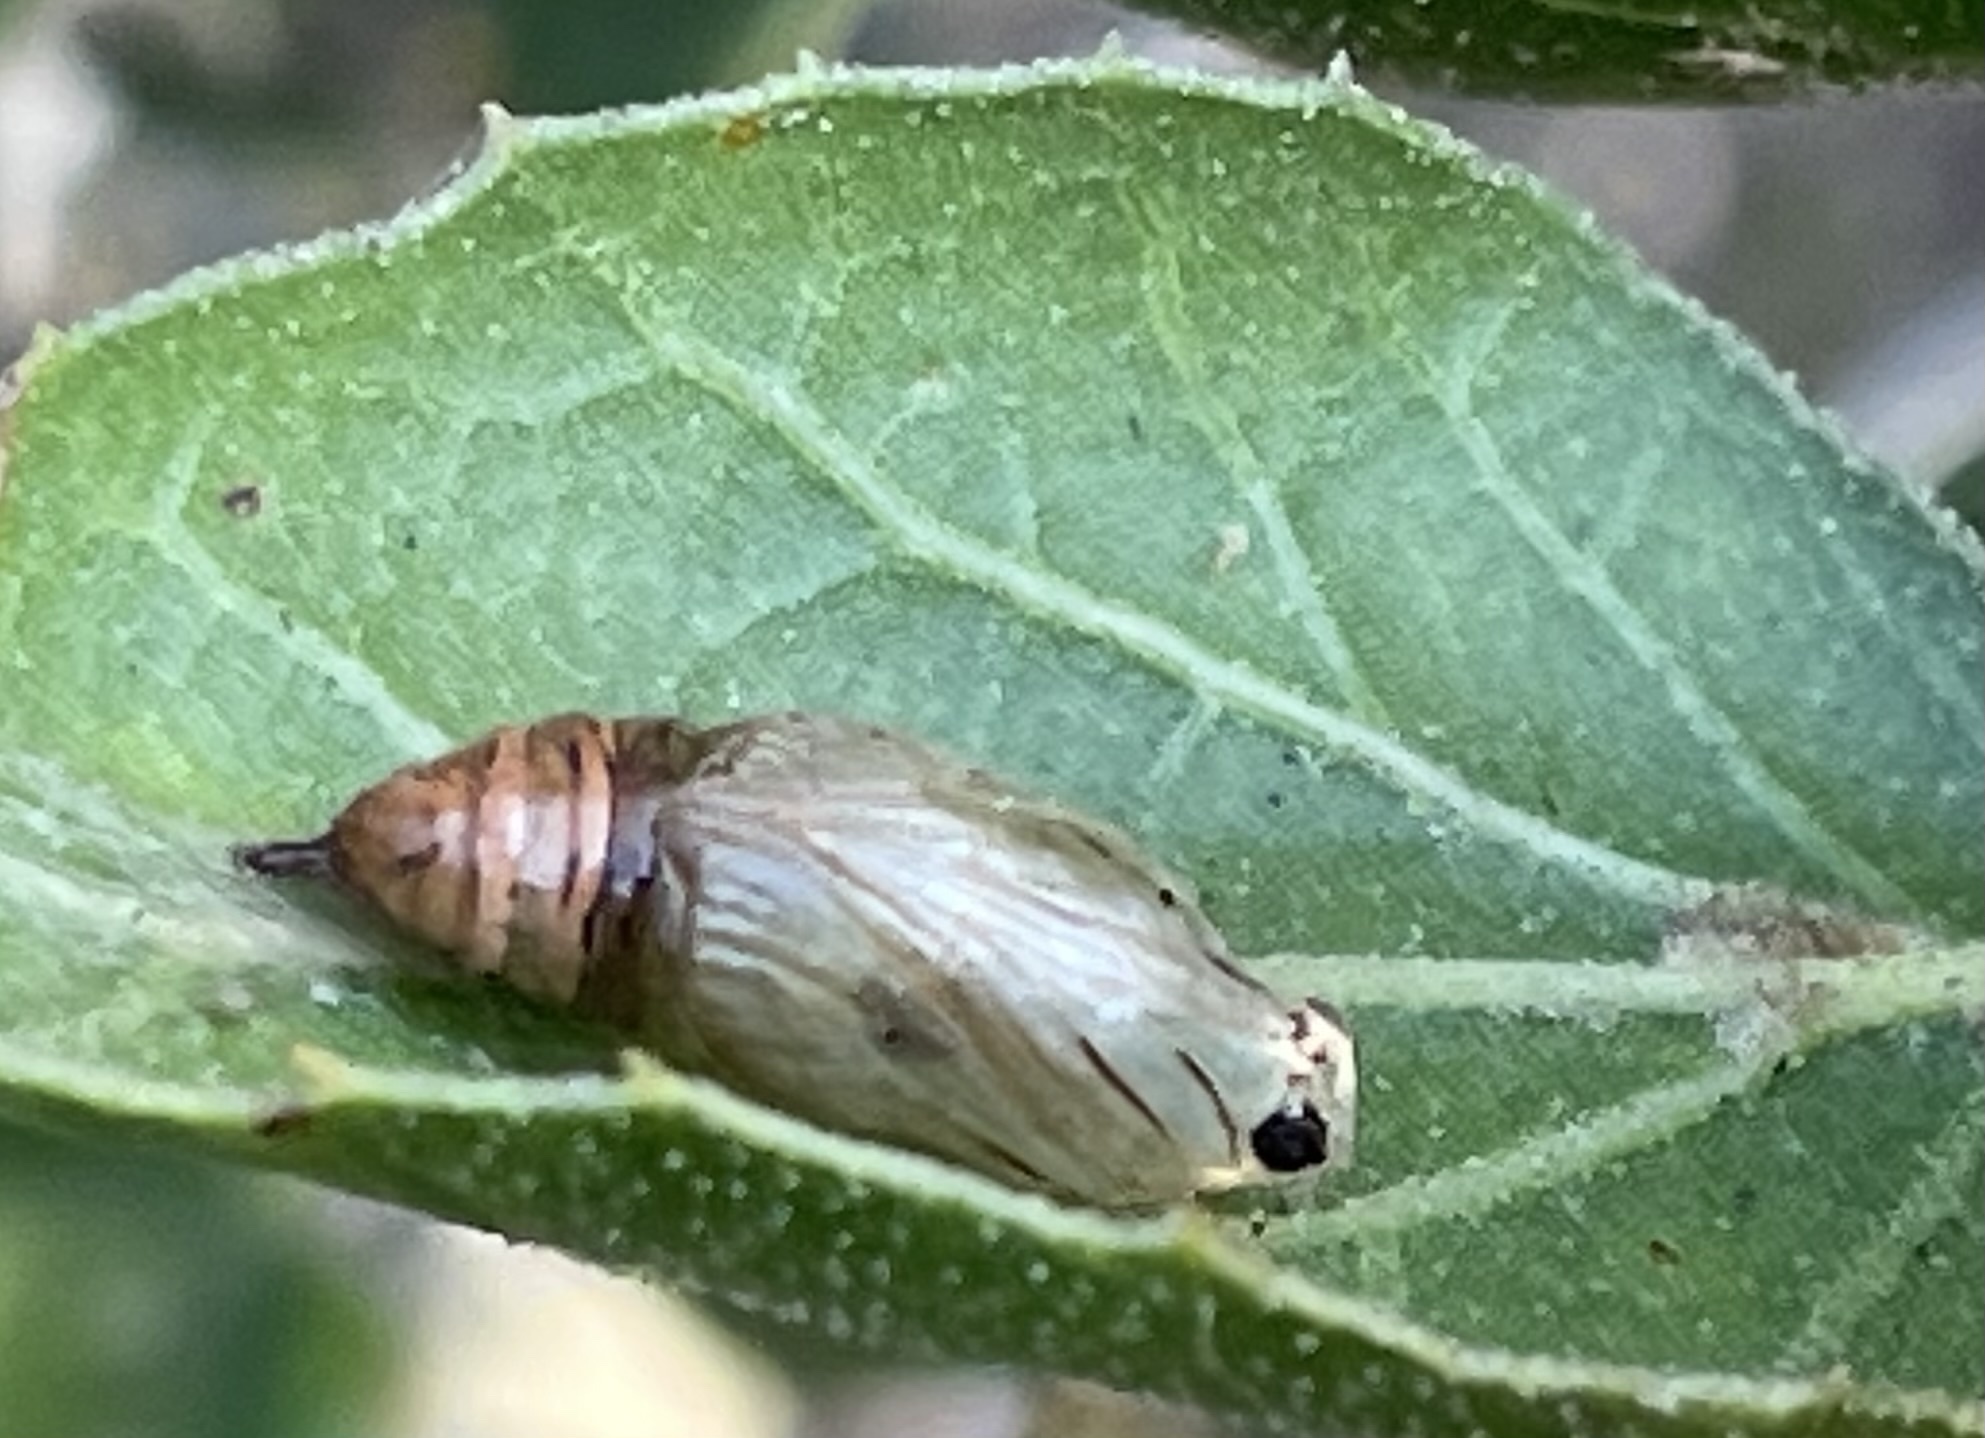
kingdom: Animalia
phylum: Arthropoda
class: Insecta
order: Lepidoptera
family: Notodontidae
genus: Phryganidia
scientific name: Phryganidia californica
